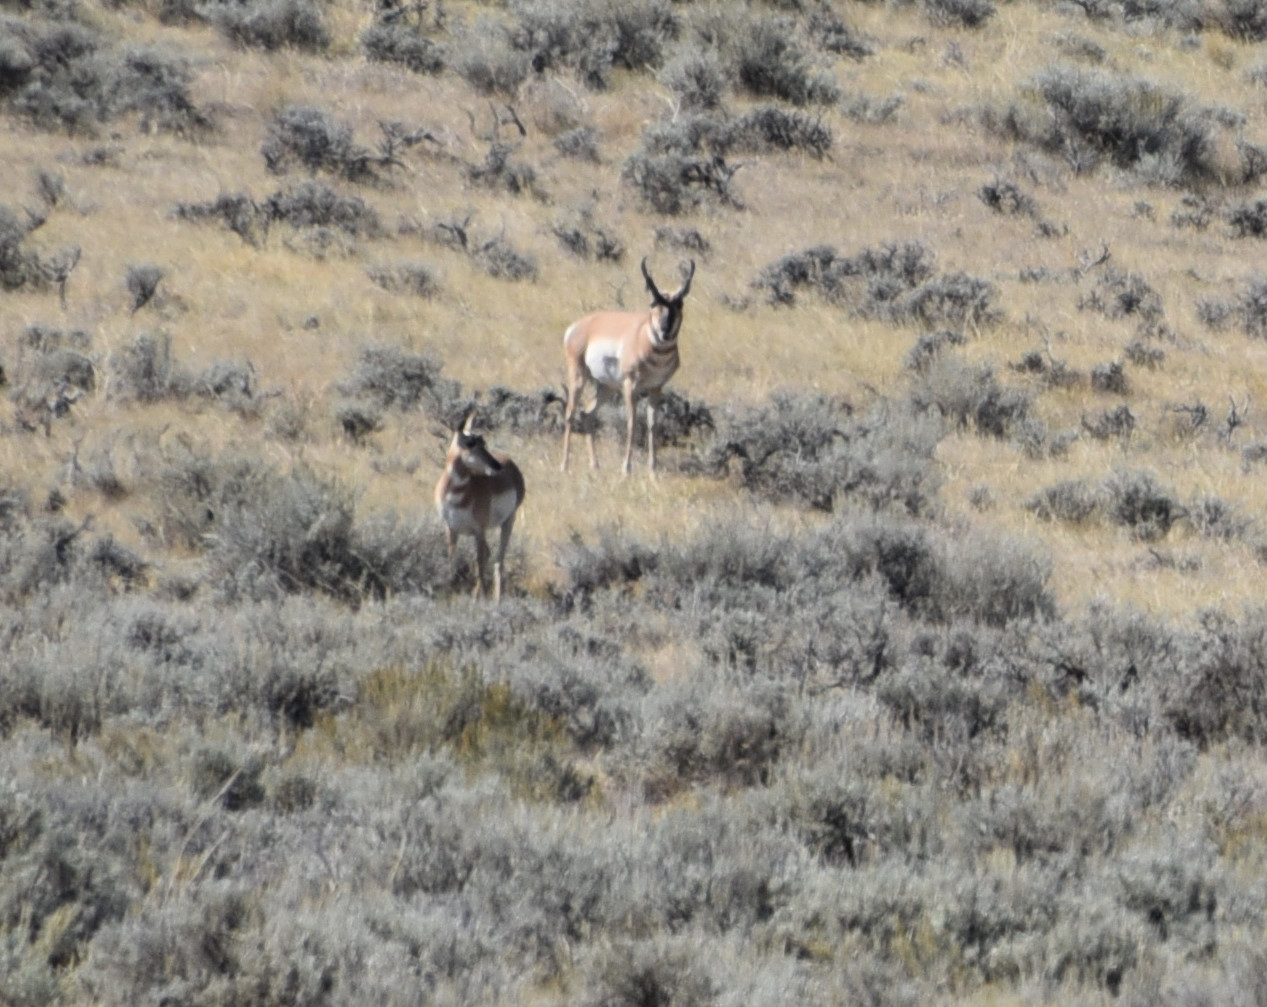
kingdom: Animalia
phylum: Chordata
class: Mammalia
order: Artiodactyla
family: Antilocapridae
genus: Antilocapra
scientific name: Antilocapra americana
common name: Pronghorn
